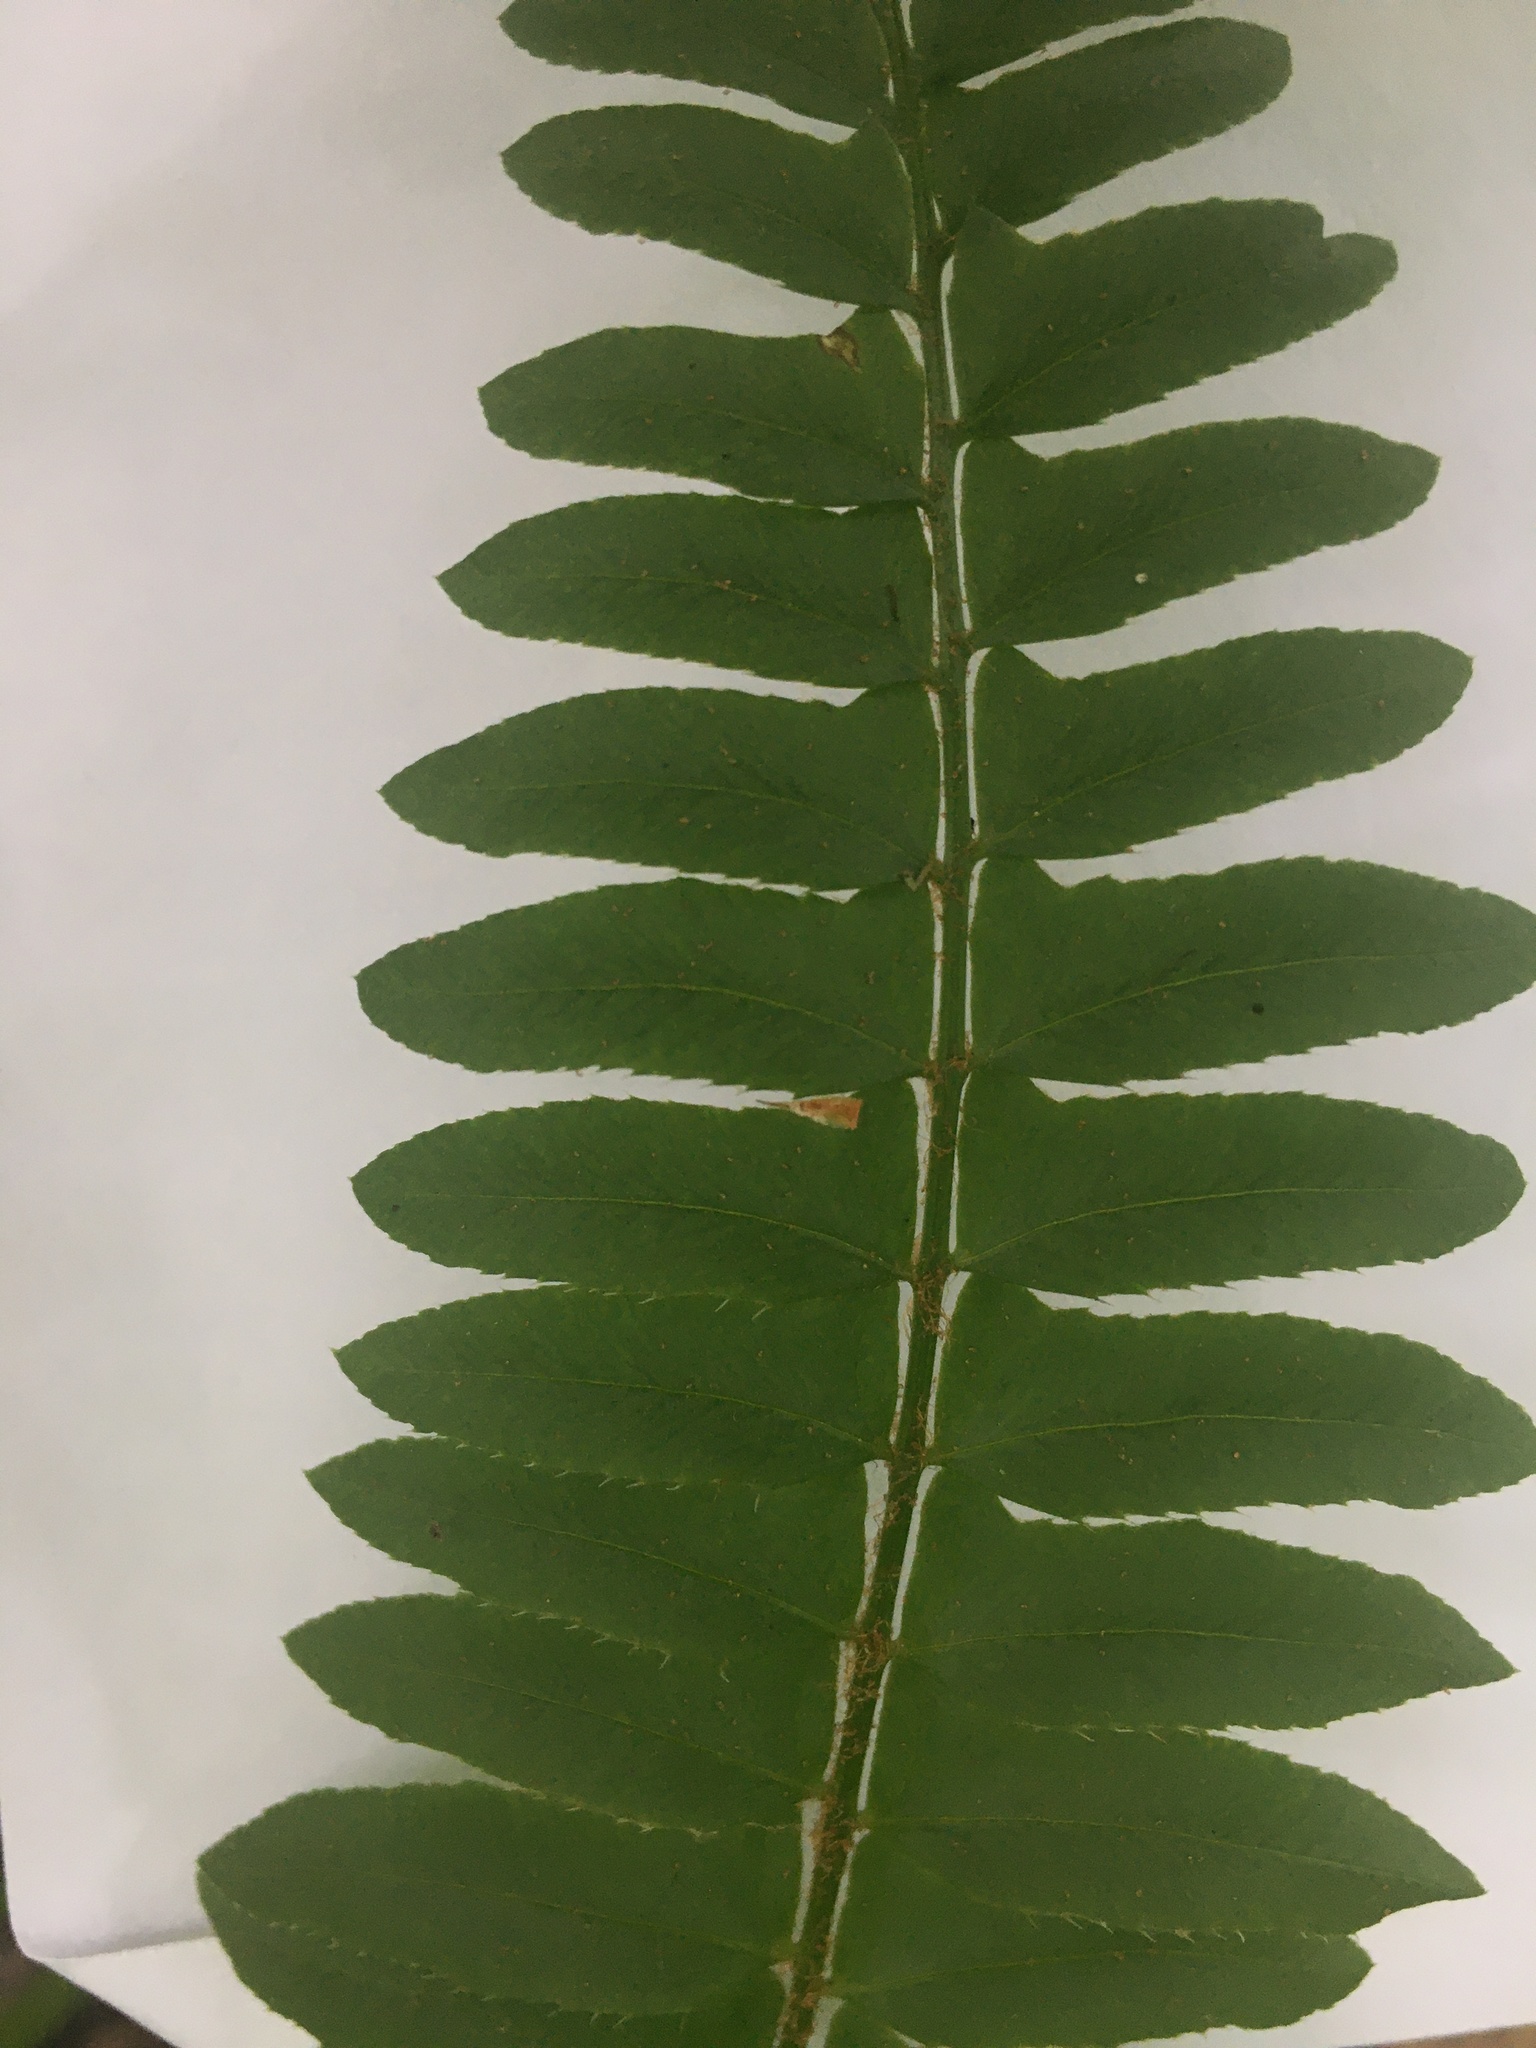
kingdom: Plantae
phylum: Tracheophyta
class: Polypodiopsida
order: Polypodiales
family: Dryopteridaceae
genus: Polystichum
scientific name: Polystichum acrostichoides
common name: Christmas fern
